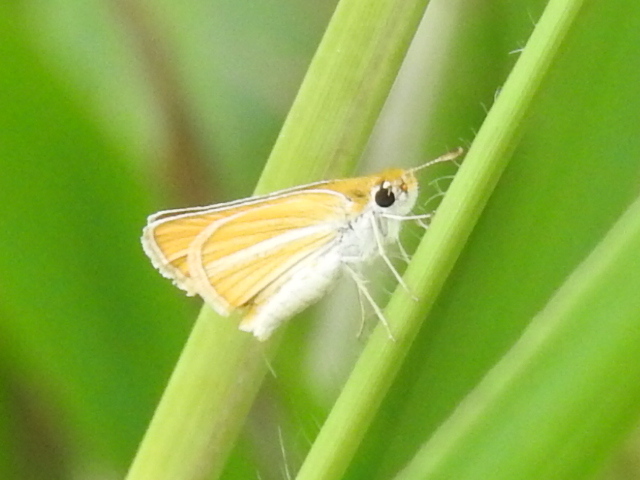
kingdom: Animalia
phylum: Arthropoda
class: Insecta
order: Lepidoptera
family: Hesperiidae
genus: Copaeodes
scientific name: Copaeodes minima
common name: Southern skipperling
